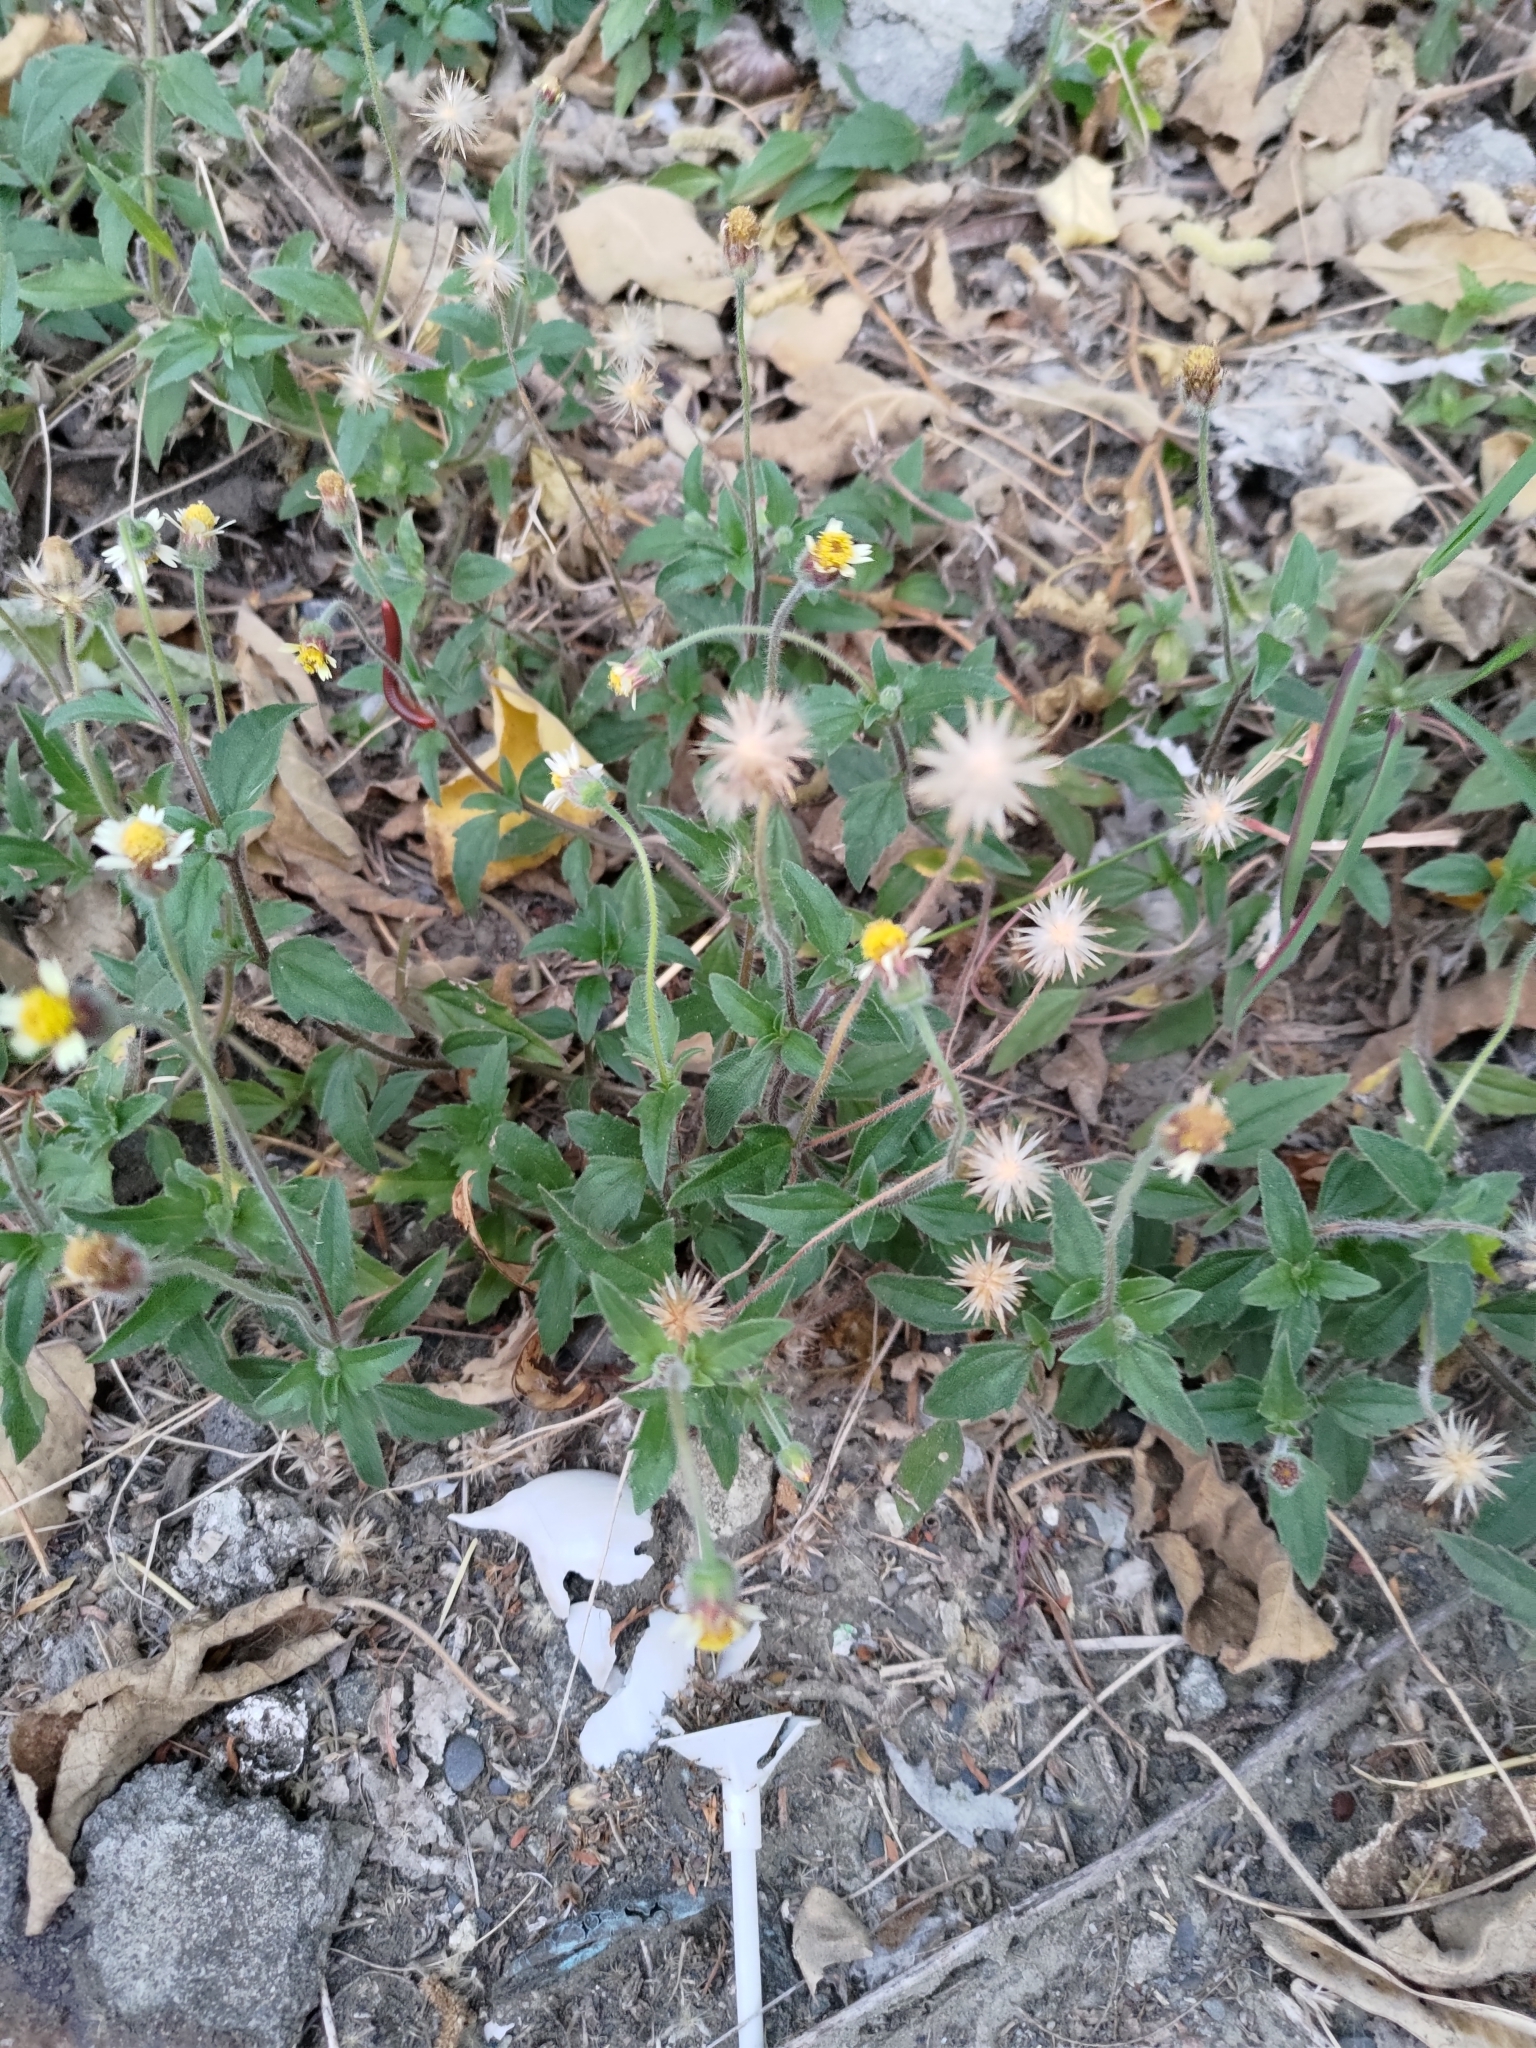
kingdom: Plantae
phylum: Tracheophyta
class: Magnoliopsida
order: Asterales
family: Asteraceae
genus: Tridax
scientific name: Tridax procumbens
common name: Coatbuttons
